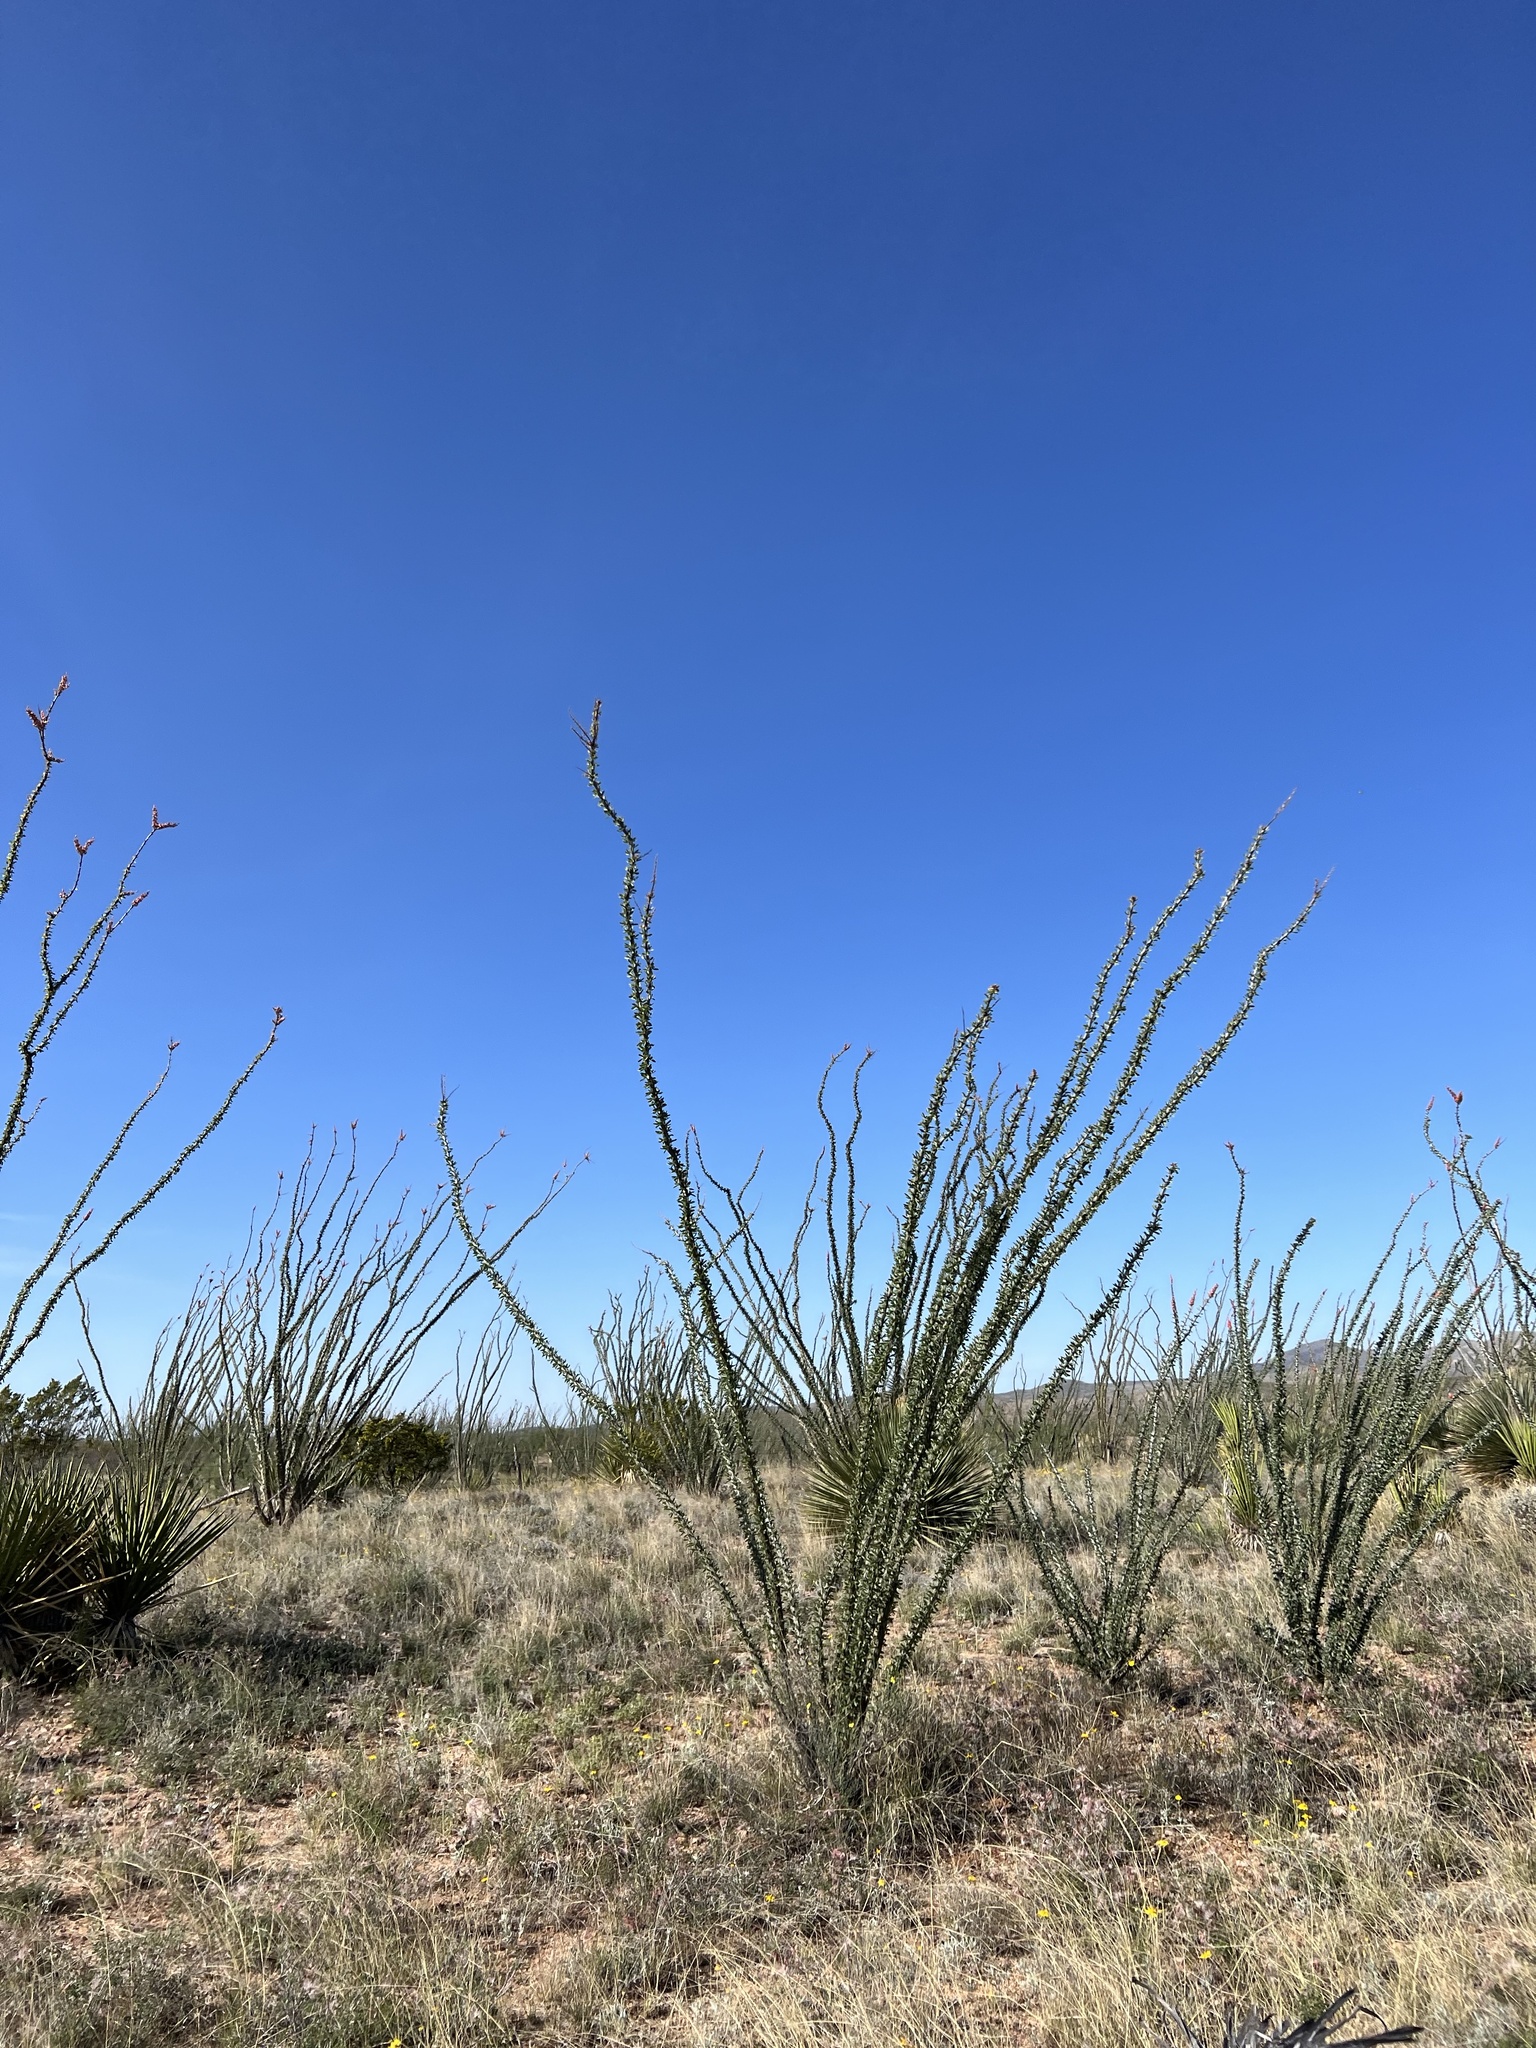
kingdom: Plantae
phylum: Tracheophyta
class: Magnoliopsida
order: Ericales
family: Fouquieriaceae
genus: Fouquieria
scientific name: Fouquieria splendens
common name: Vine-cactus
